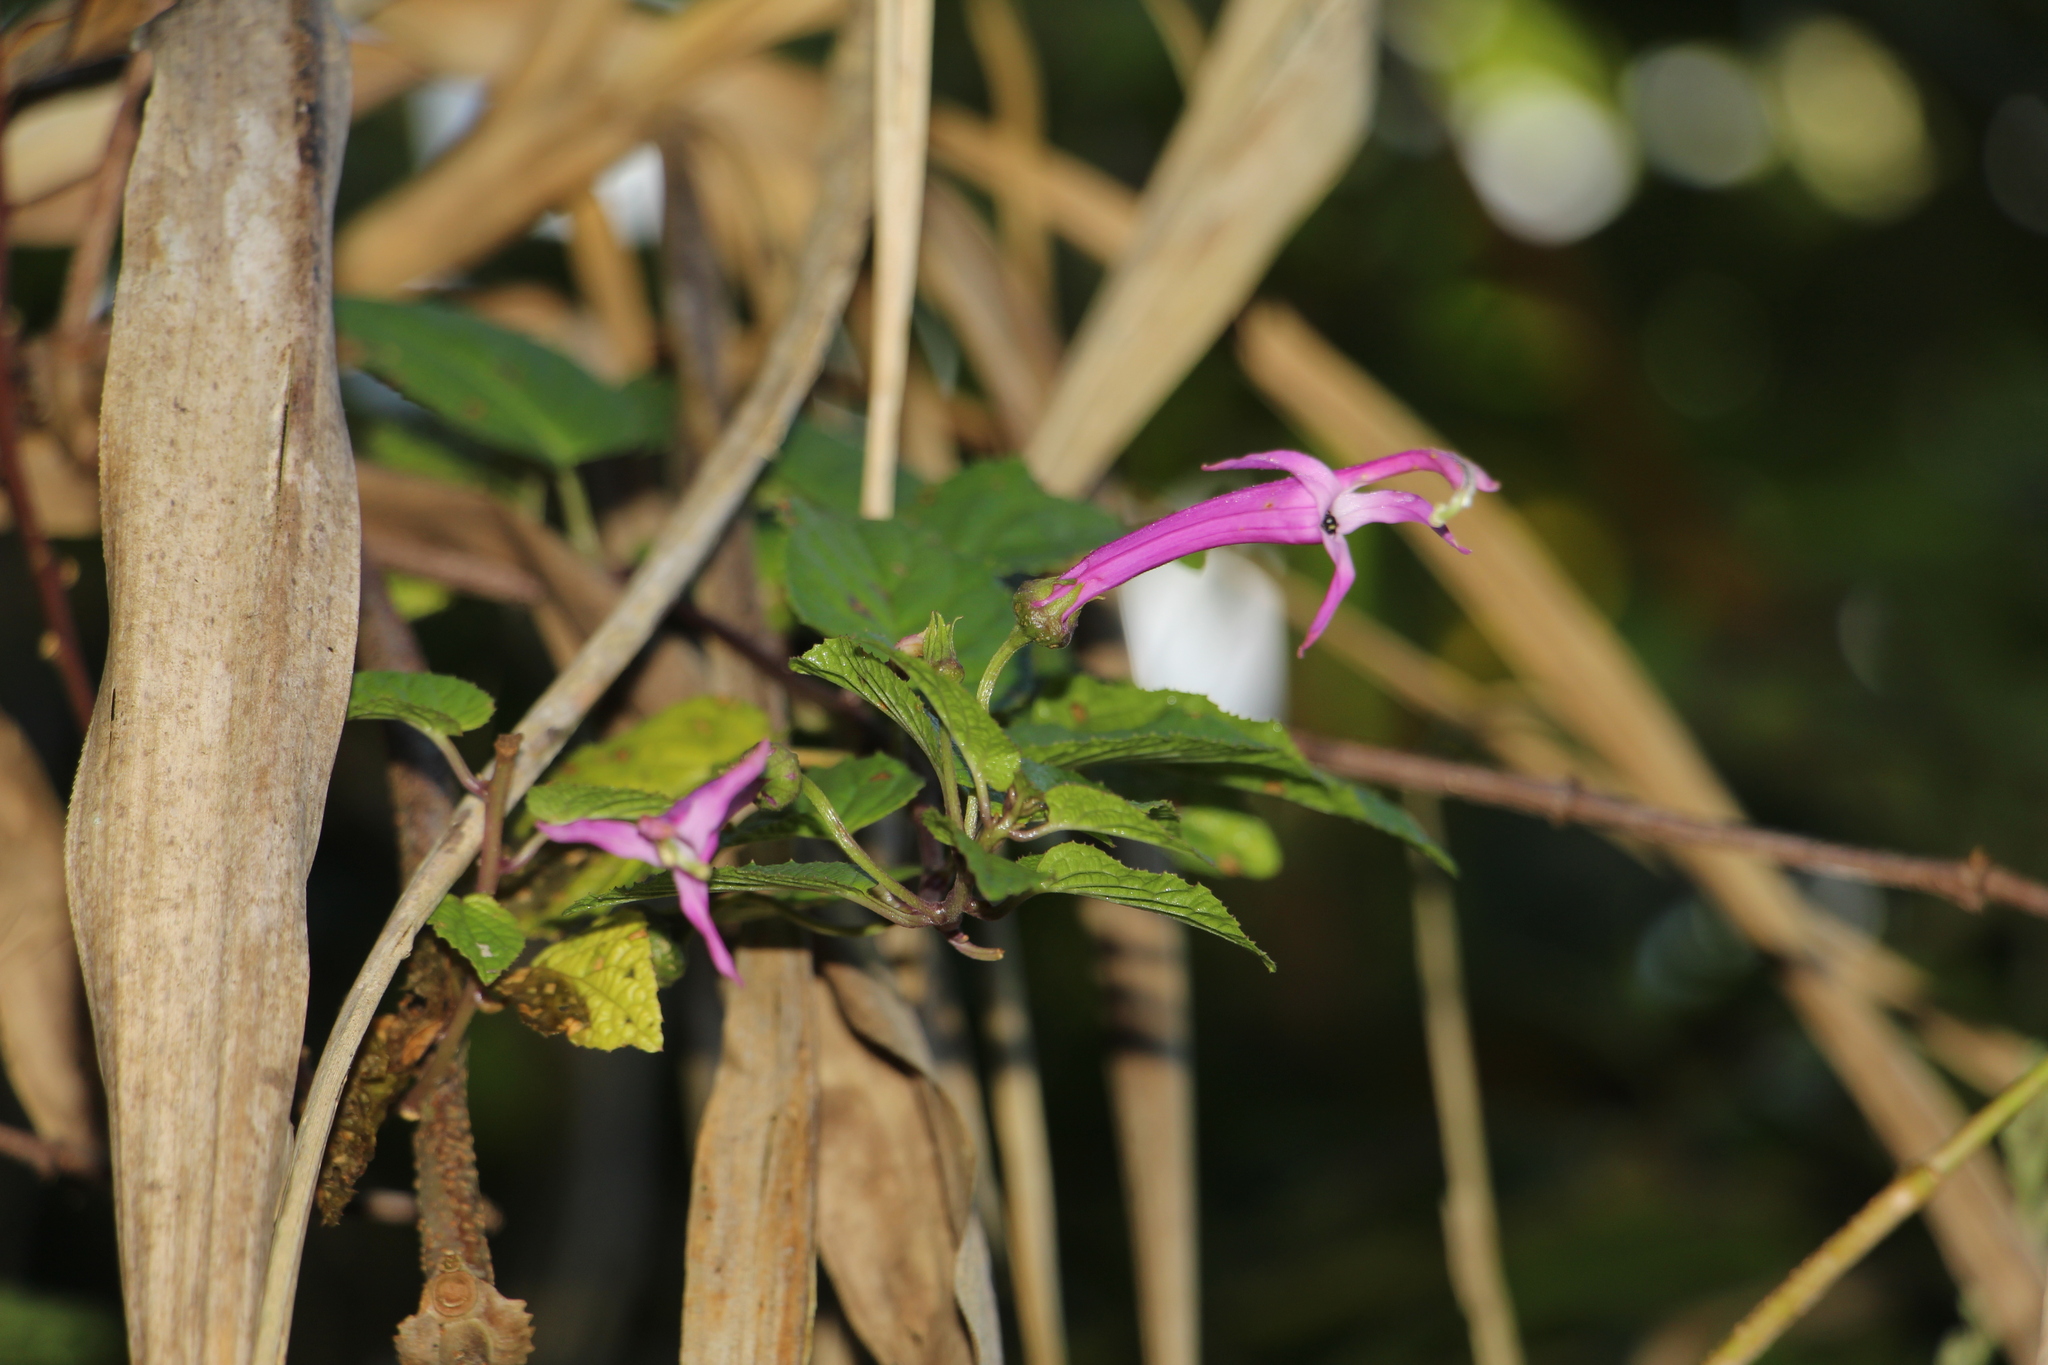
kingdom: Plantae
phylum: Tracheophyta
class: Magnoliopsida
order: Asterales
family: Campanulaceae
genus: Siphocampylus
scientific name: Siphocampylus denticulosus
